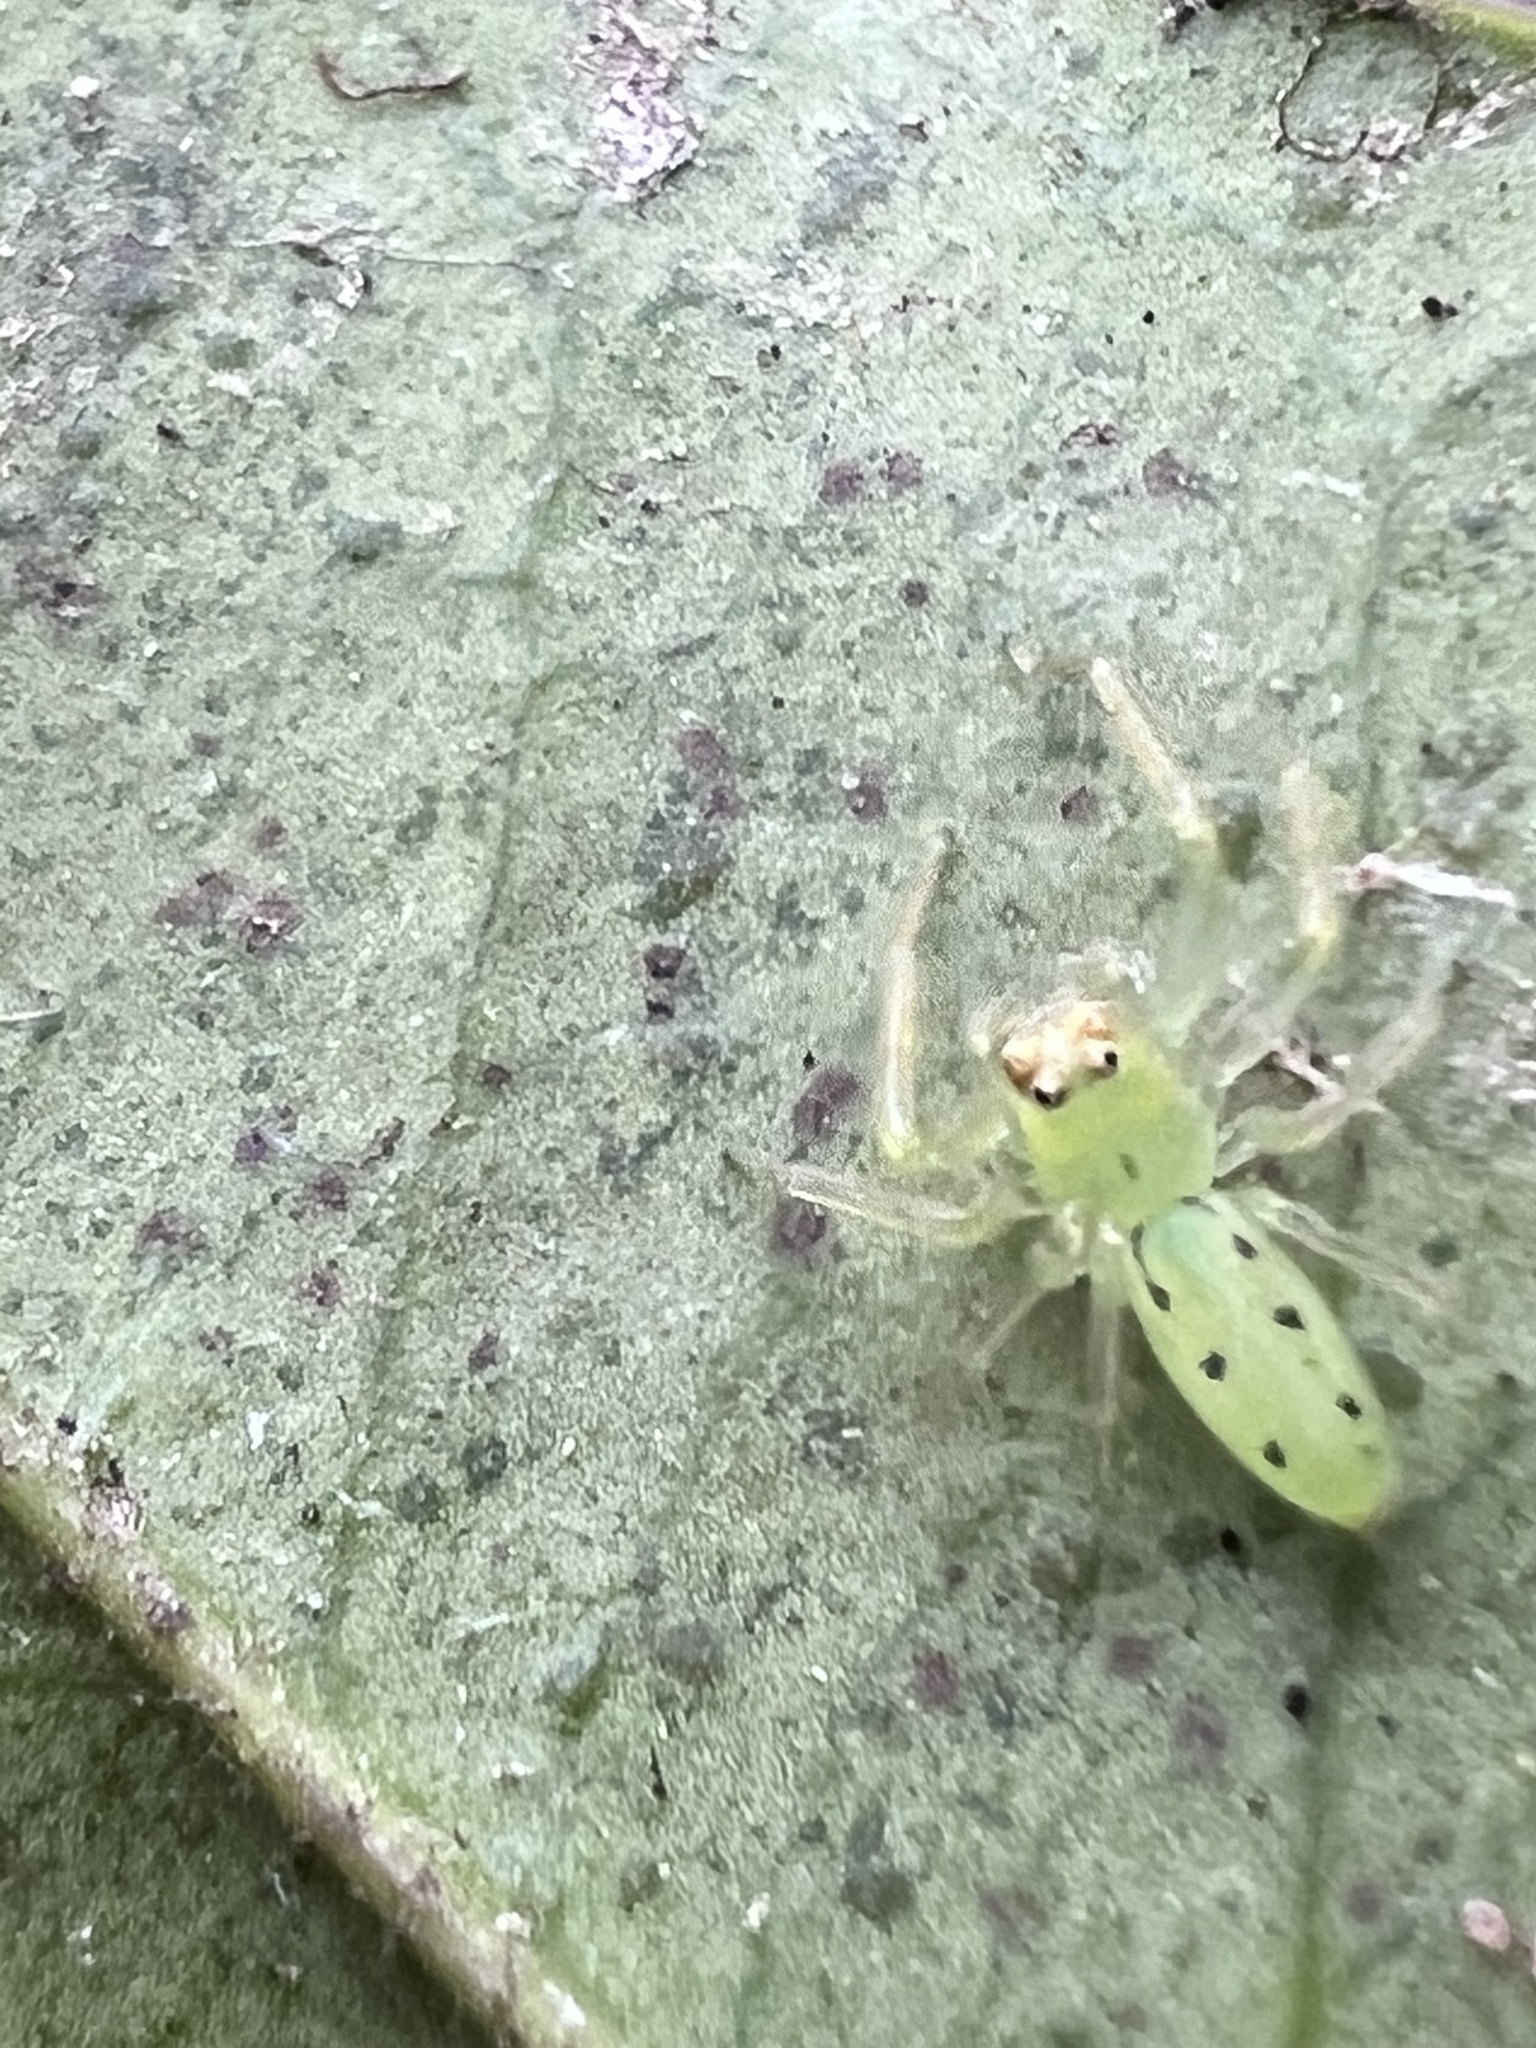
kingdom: Animalia
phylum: Arthropoda
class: Arachnida
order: Araneae
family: Salticidae
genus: Lyssomanes
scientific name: Lyssomanes viridis
